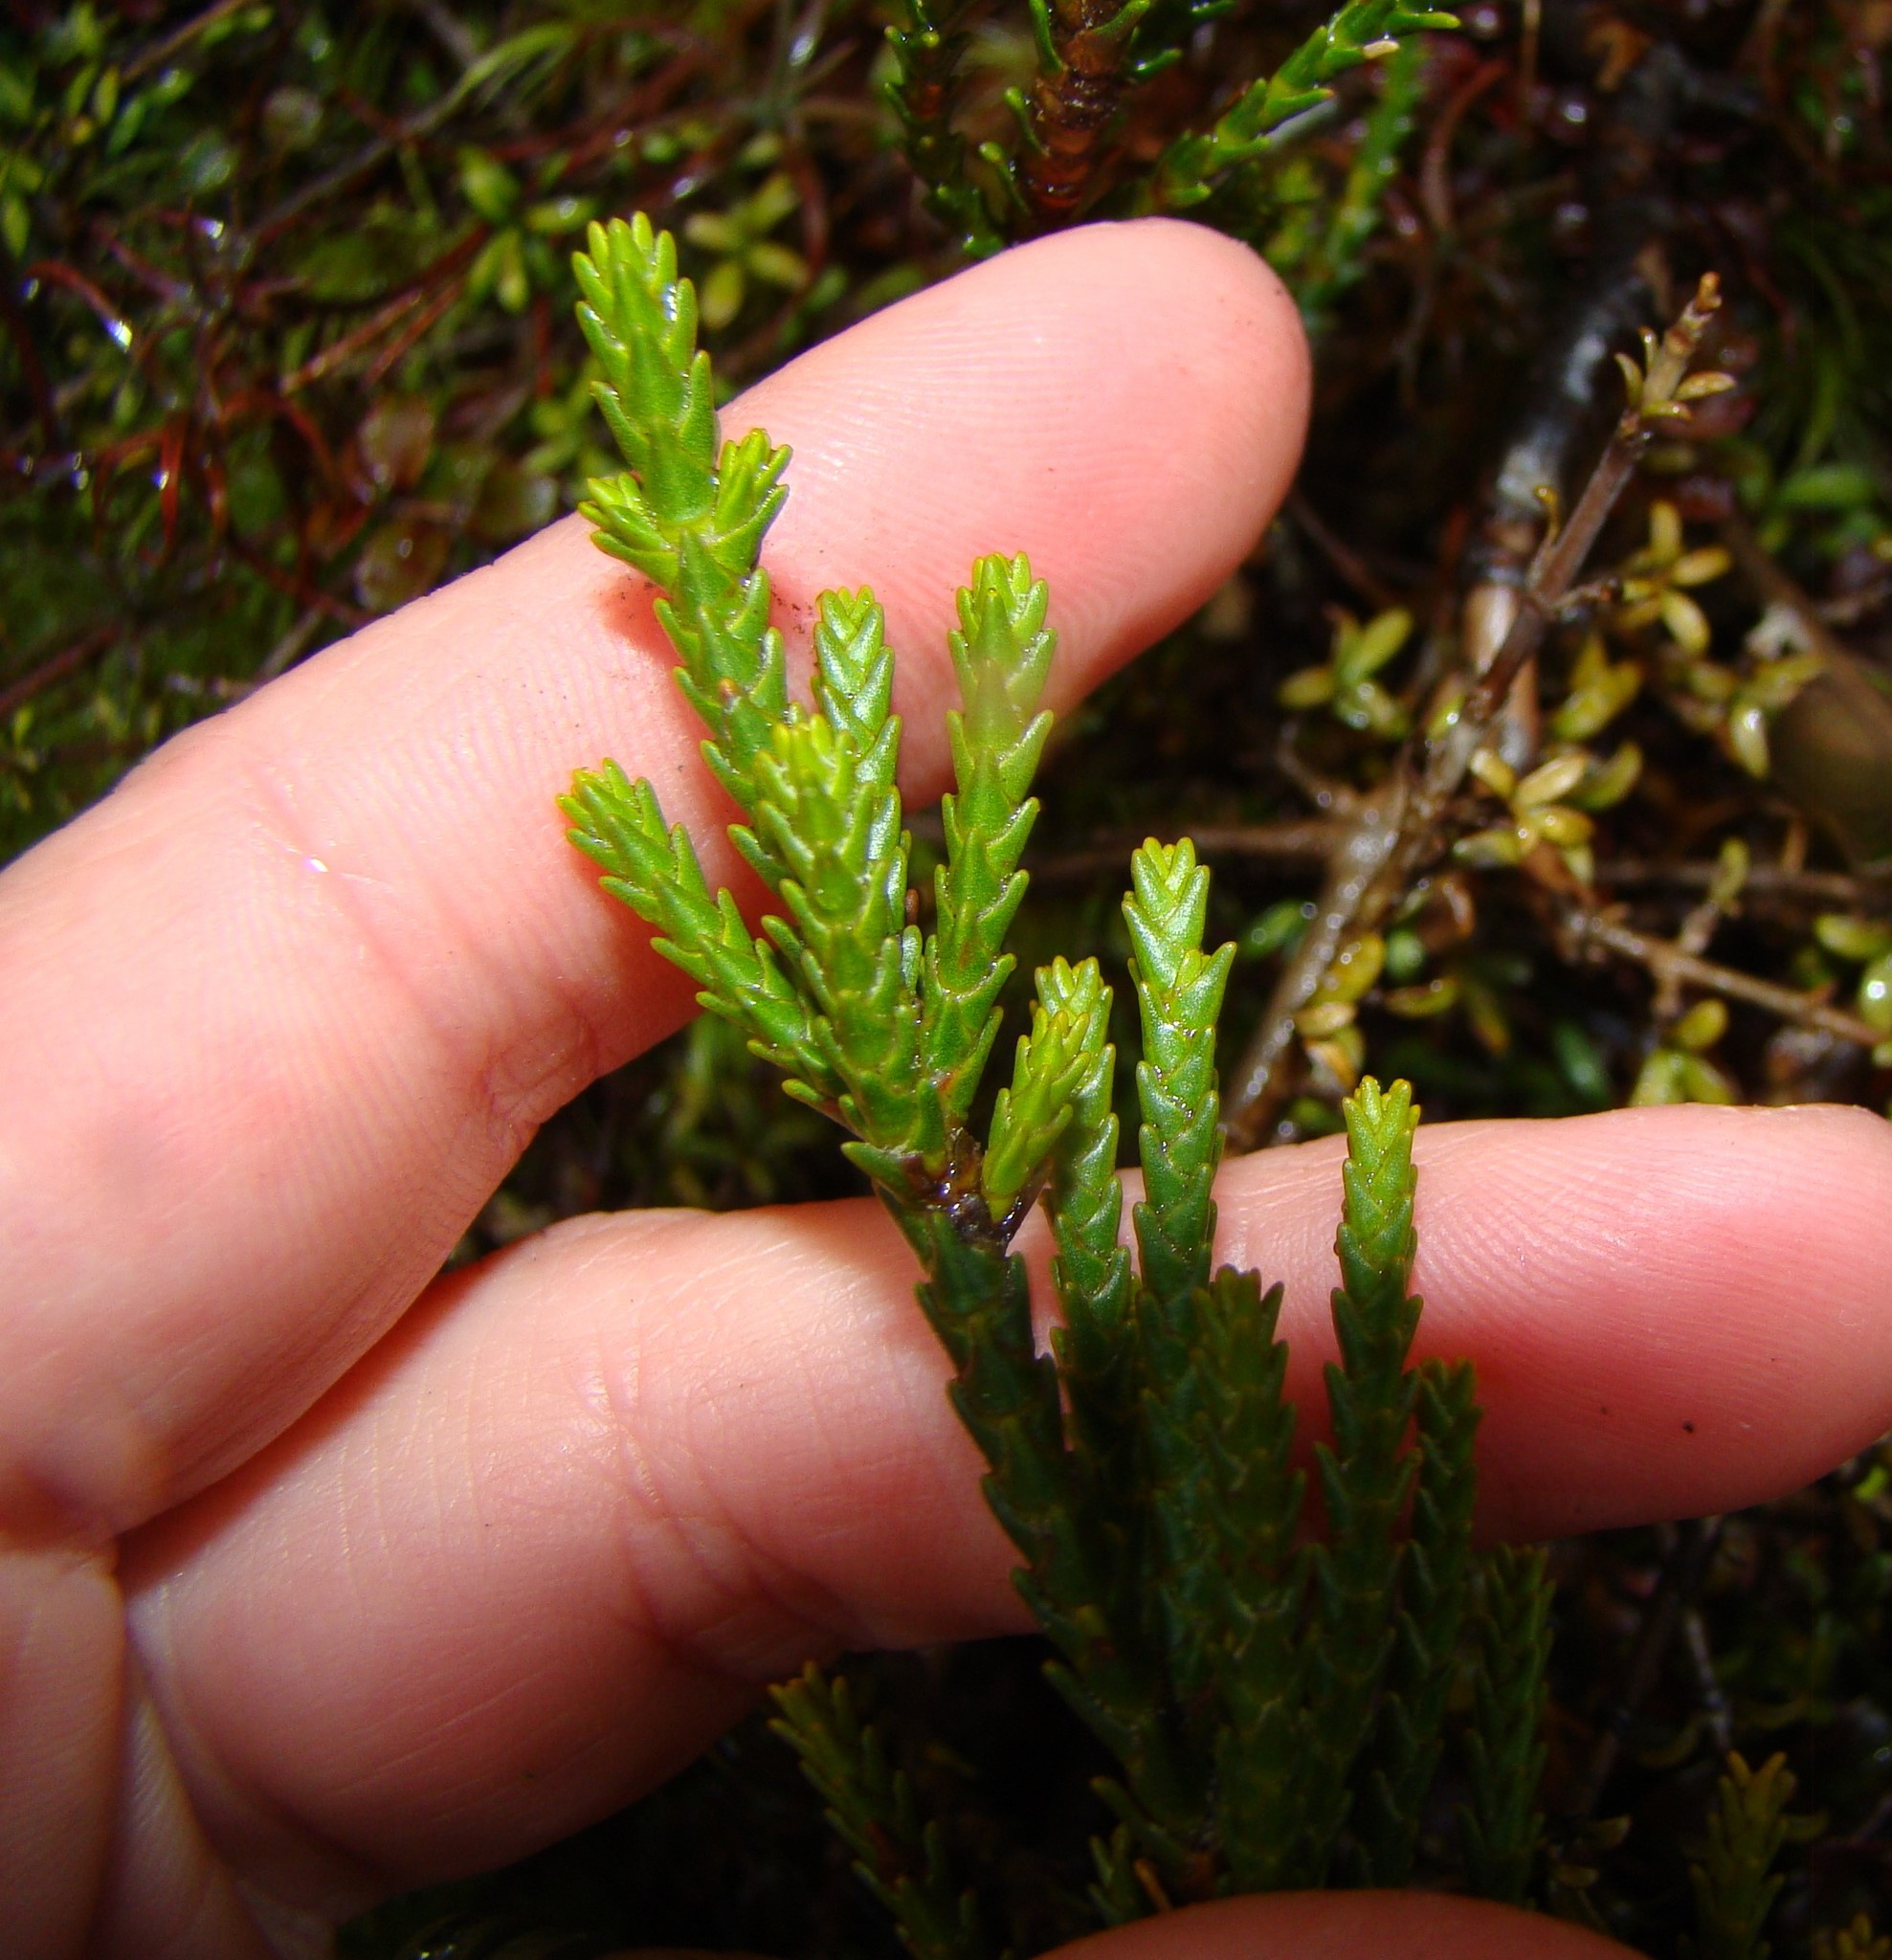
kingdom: Plantae
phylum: Tracheophyta
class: Magnoliopsida
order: Lamiales
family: Plantaginaceae
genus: Veronica
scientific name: Veronica tetragona
